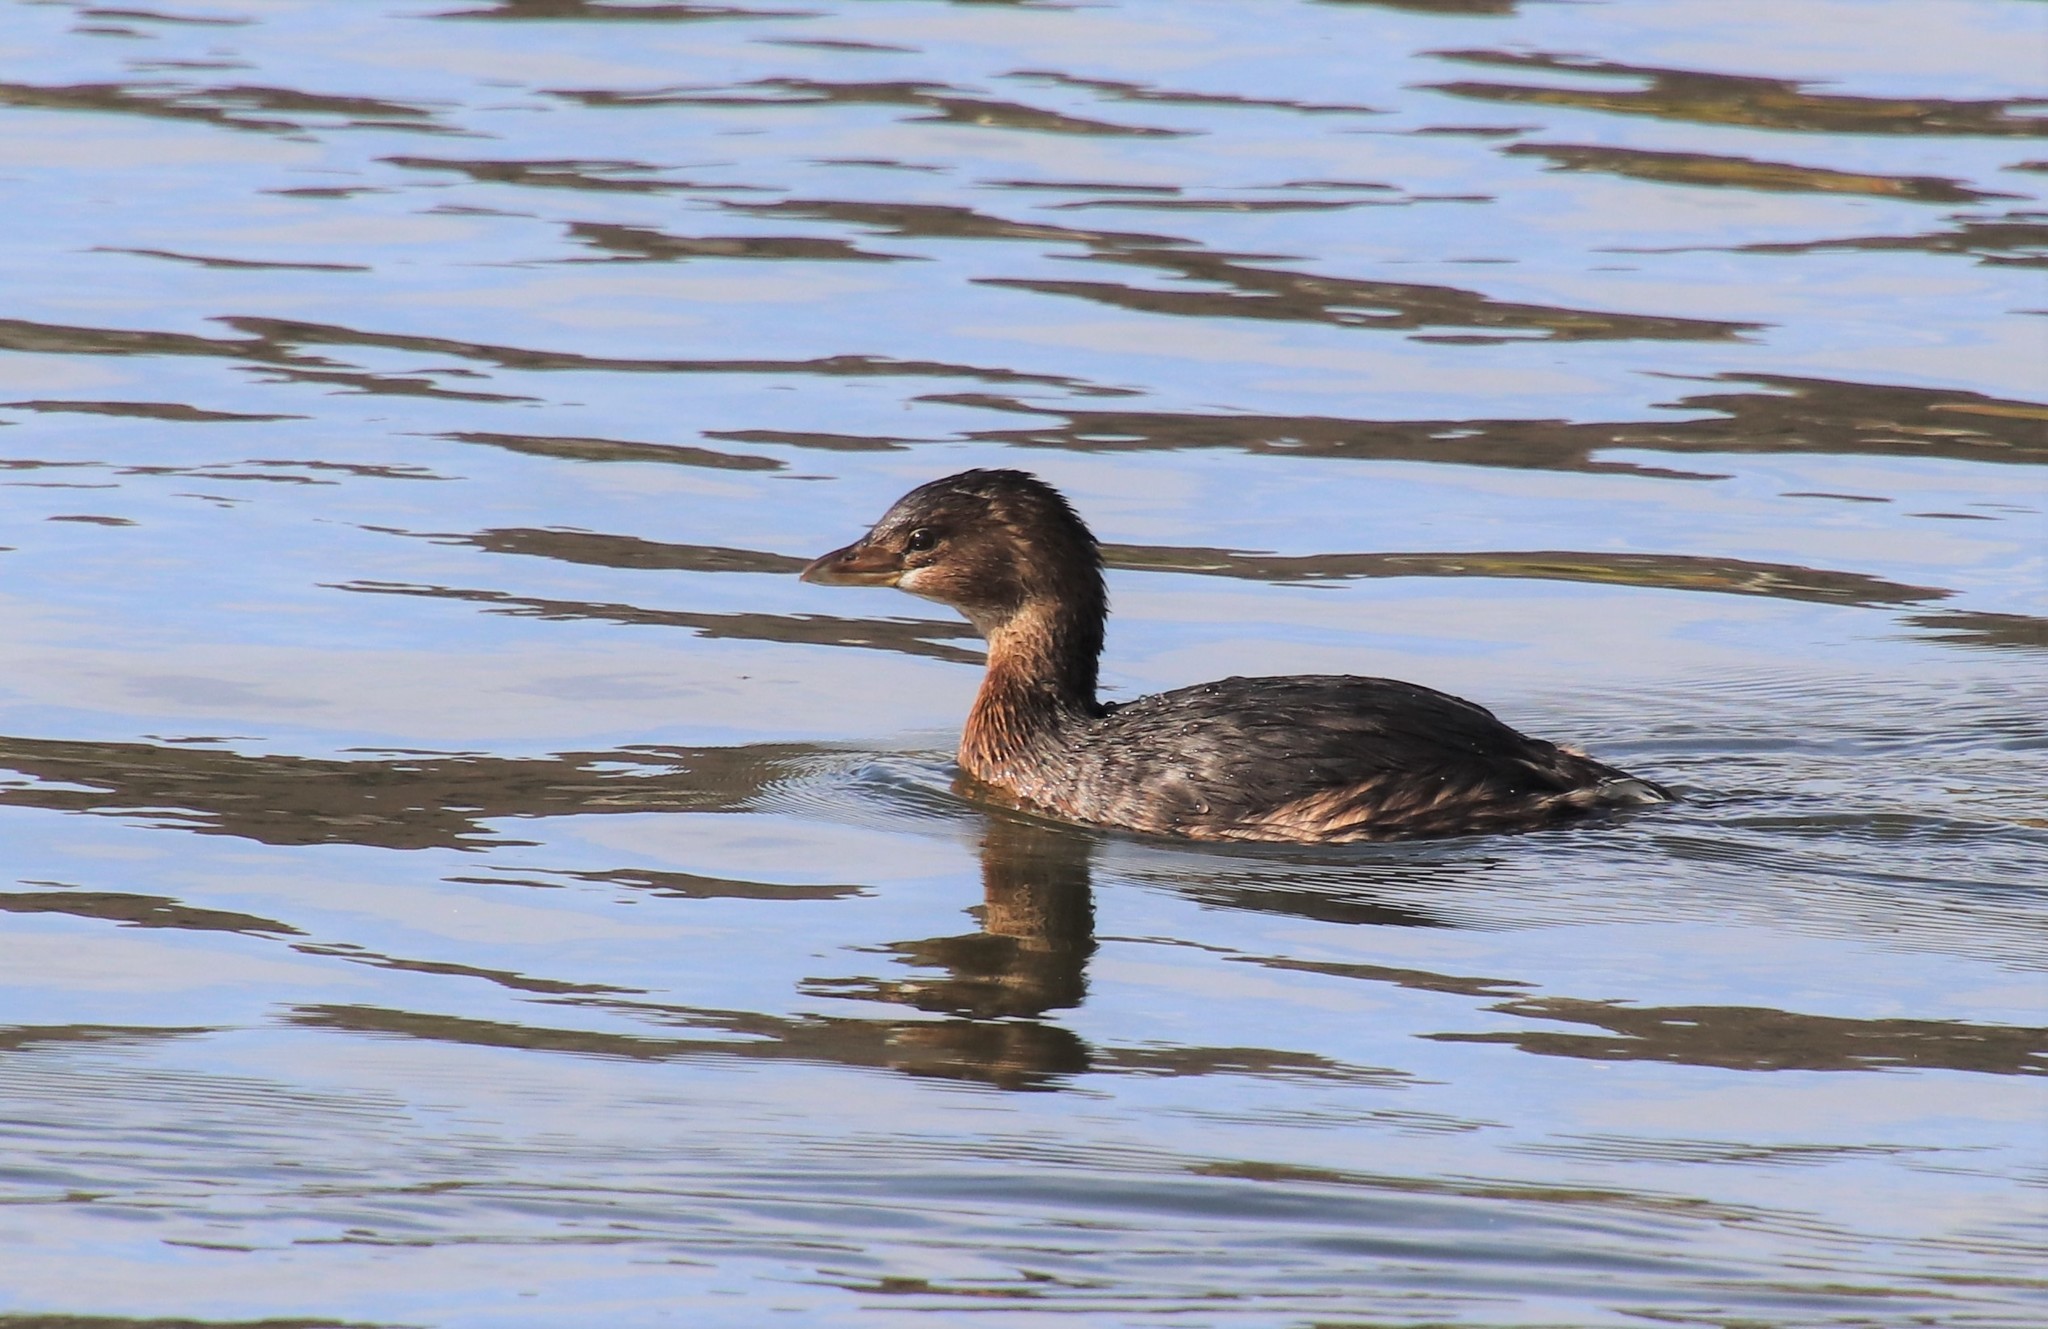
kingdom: Animalia
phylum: Chordata
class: Aves
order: Podicipediformes
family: Podicipedidae
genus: Podilymbus
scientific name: Podilymbus podiceps
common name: Pied-billed grebe
